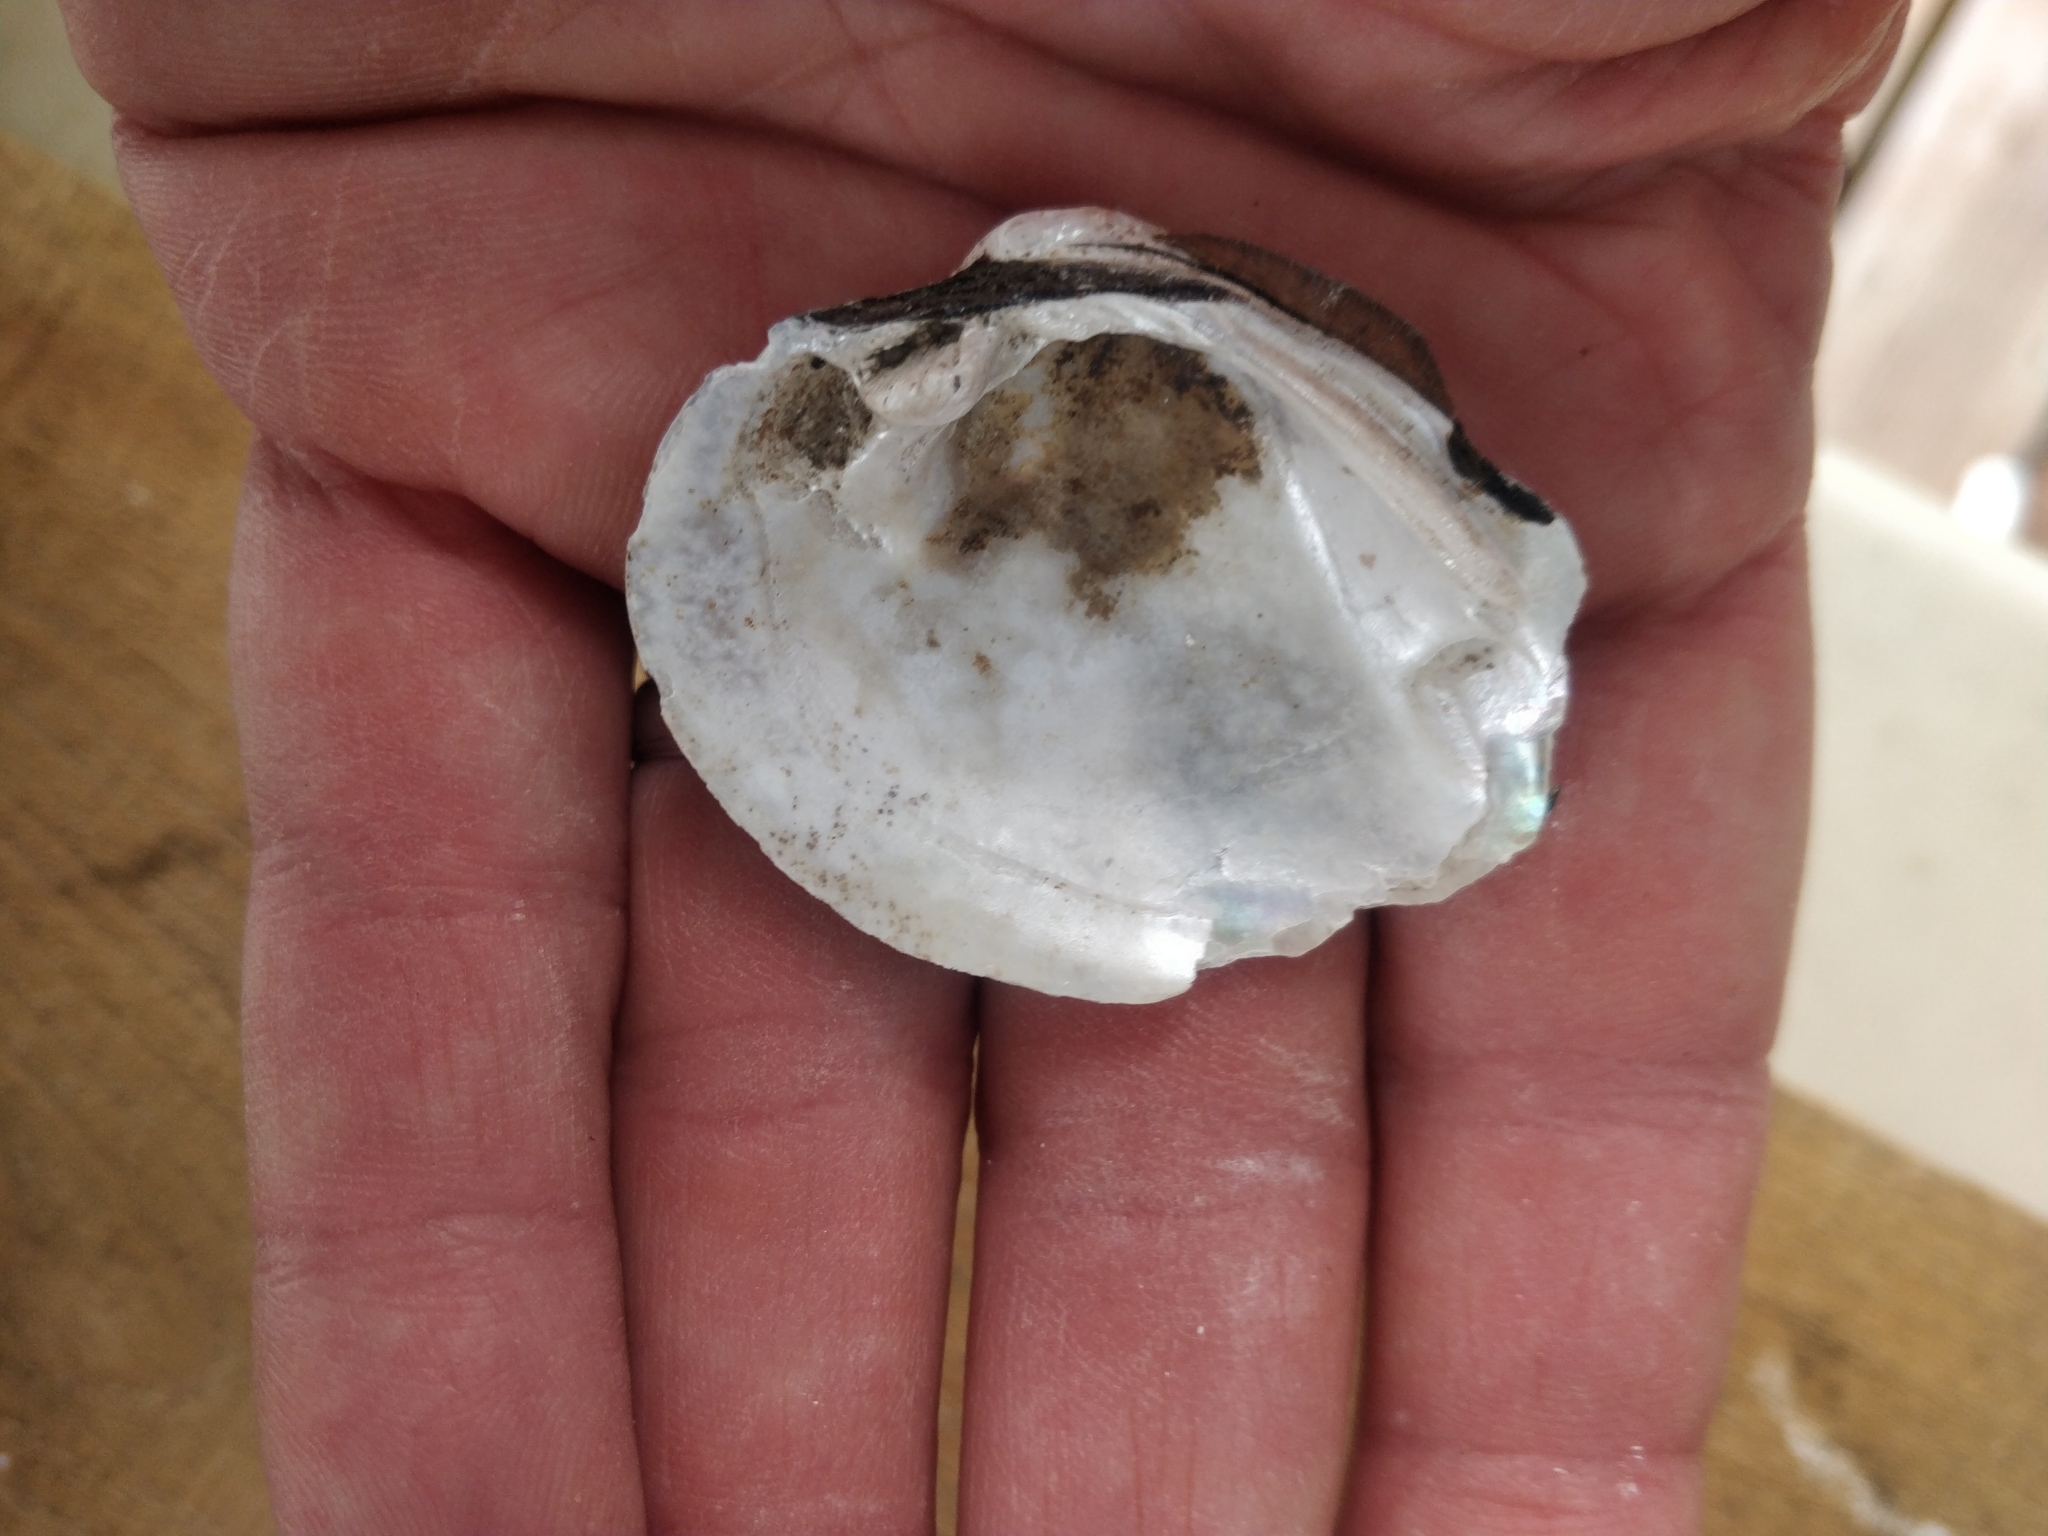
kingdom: Animalia
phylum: Mollusca
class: Bivalvia
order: Unionida
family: Unionidae
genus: Fusconaia
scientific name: Fusconaia flava
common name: Wabash pigtoe
